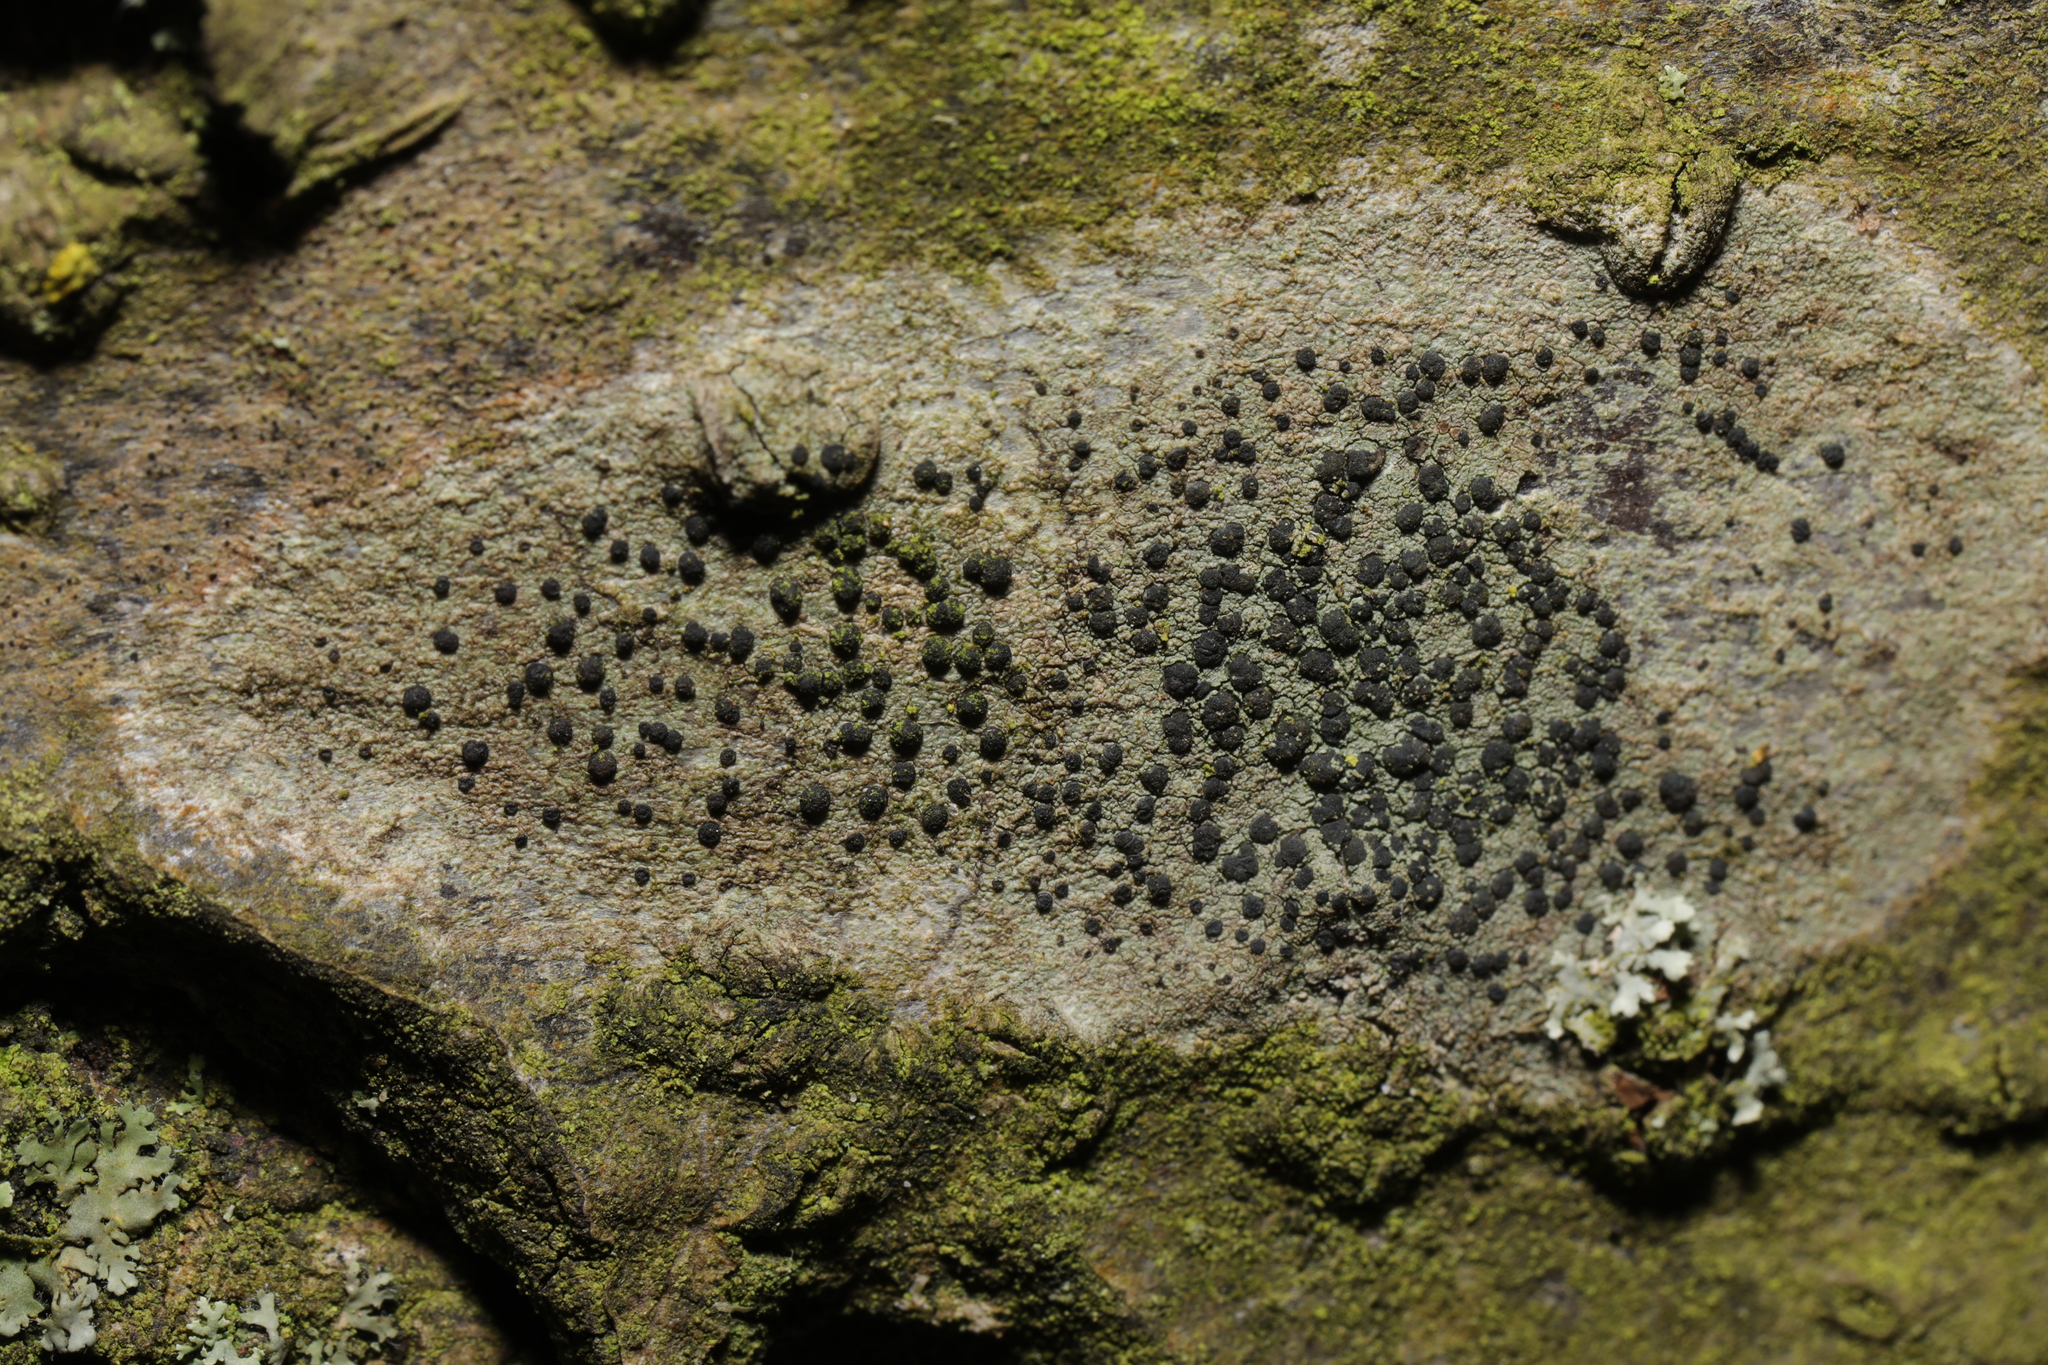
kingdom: Fungi
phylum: Ascomycota
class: Lecanoromycetes
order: Lecanorales
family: Lecanoraceae
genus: Lecidella
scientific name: Lecidella elaeochroma
